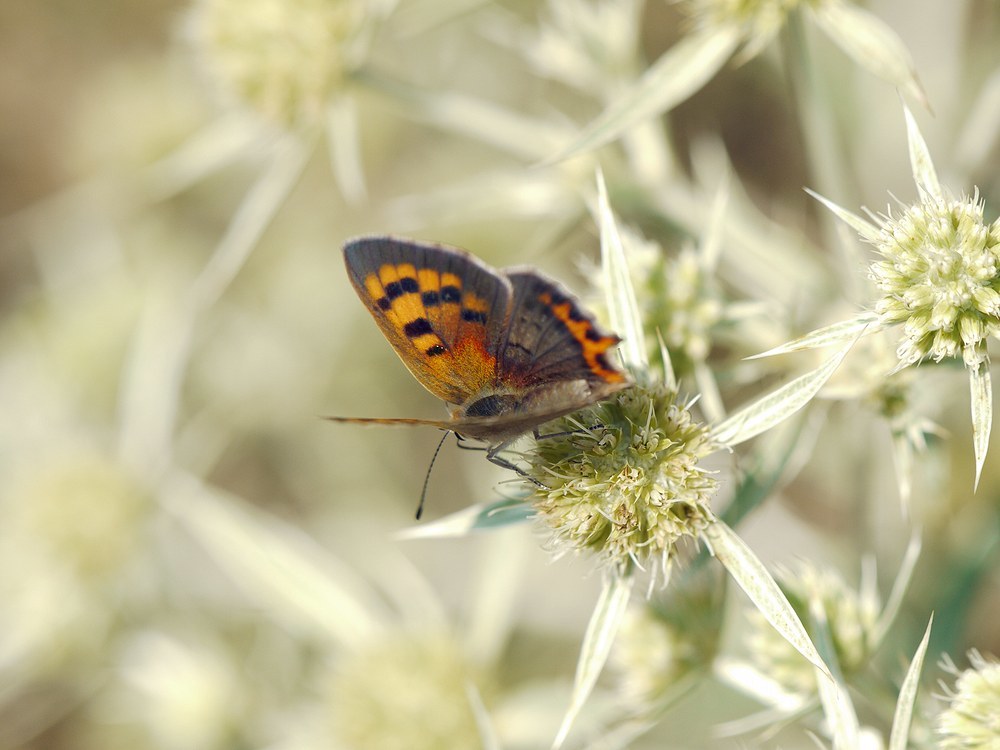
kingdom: Animalia
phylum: Arthropoda
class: Insecta
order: Lepidoptera
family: Lycaenidae
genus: Lycaena
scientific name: Lycaena phlaeas
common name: Small copper
